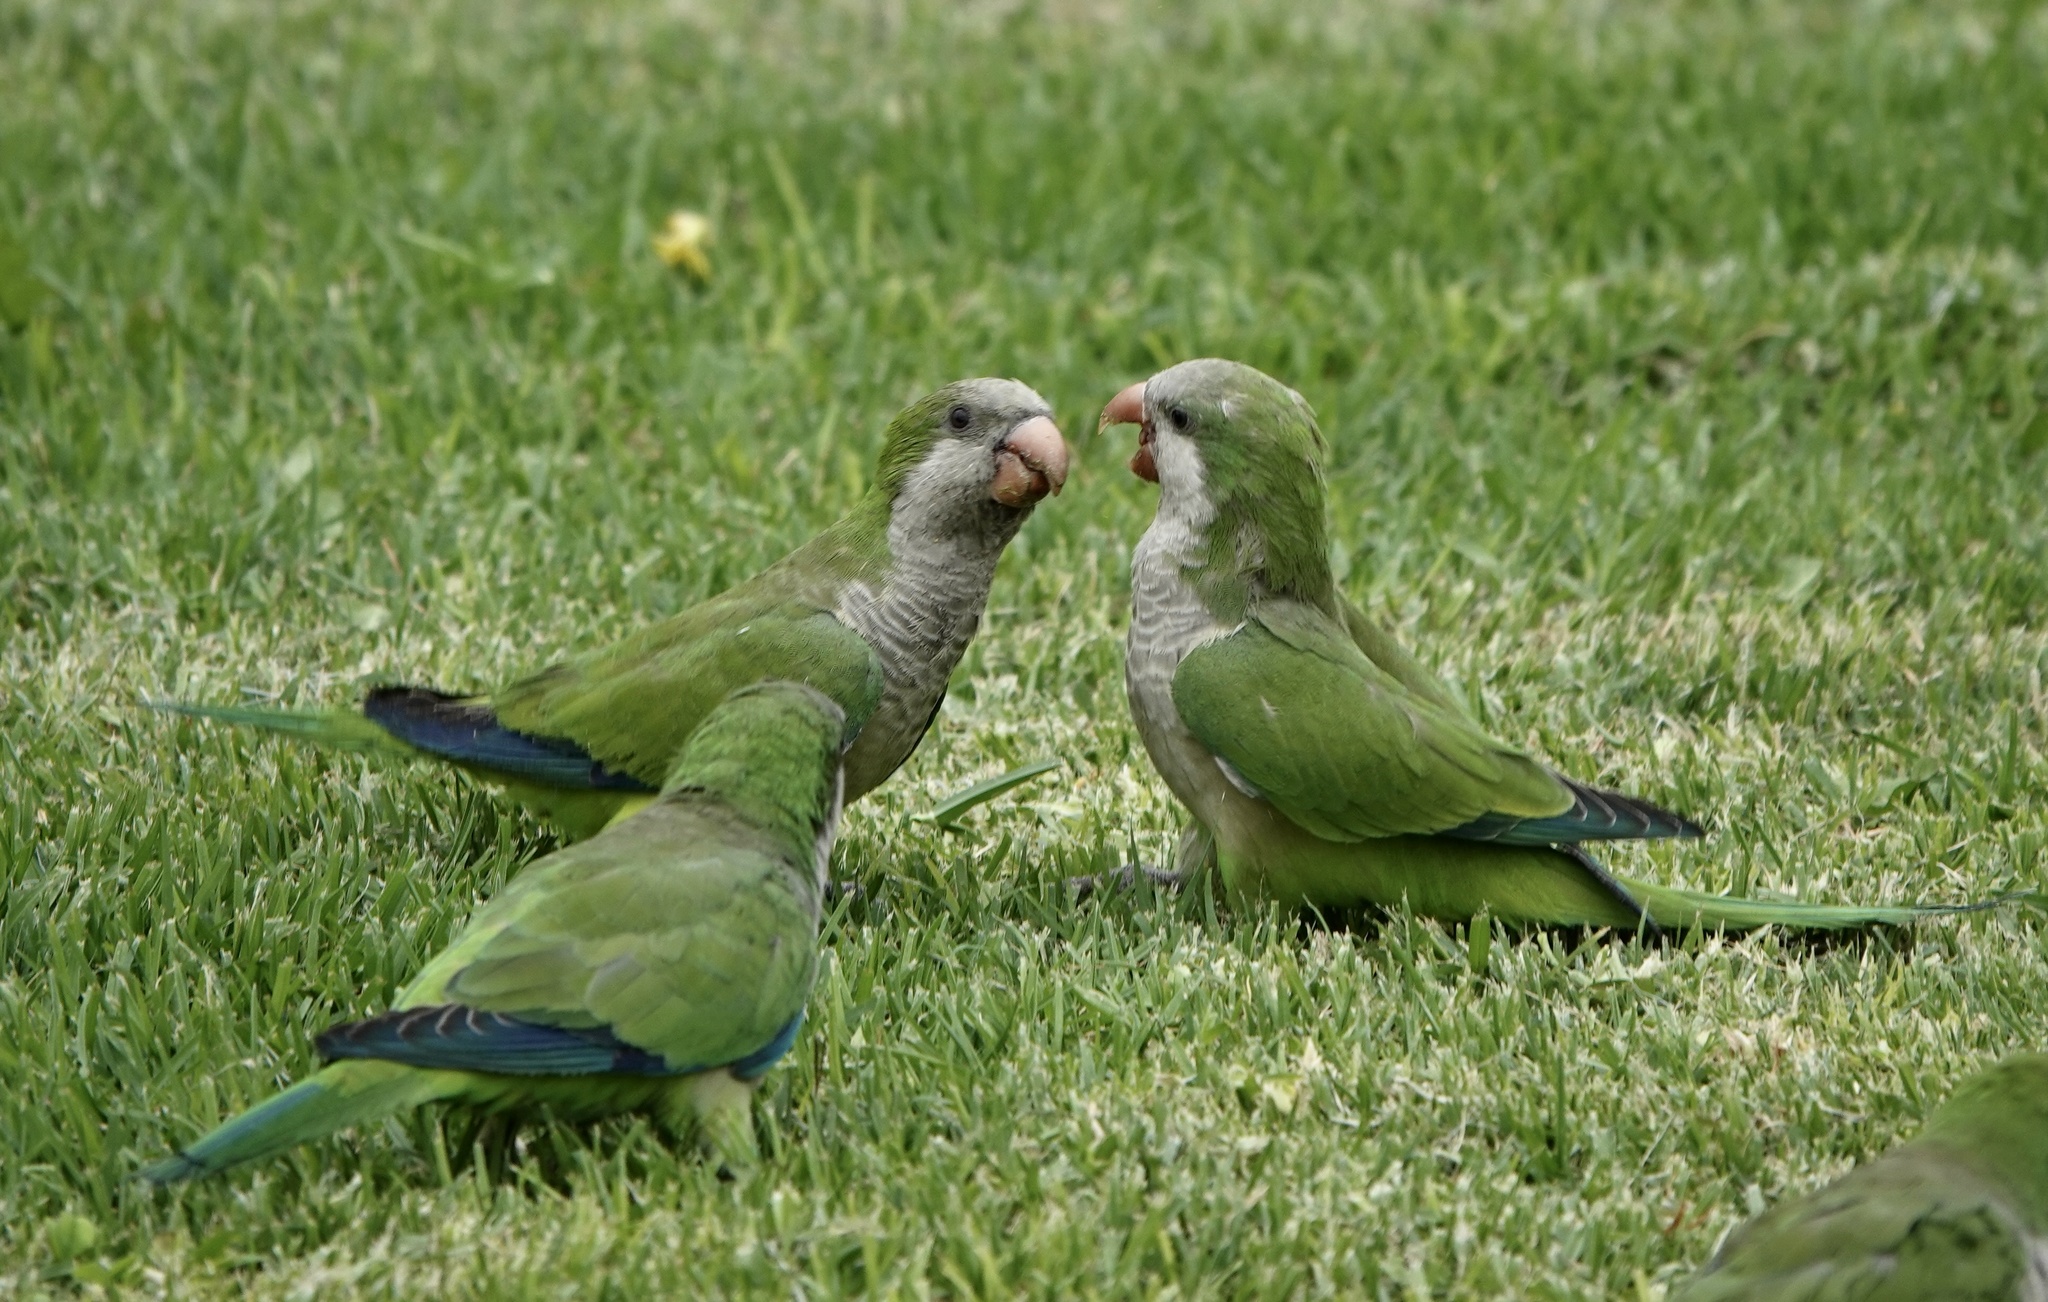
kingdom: Animalia
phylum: Chordata
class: Aves
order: Psittaciformes
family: Psittacidae
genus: Myiopsitta
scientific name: Myiopsitta monachus
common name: Monk parakeet
